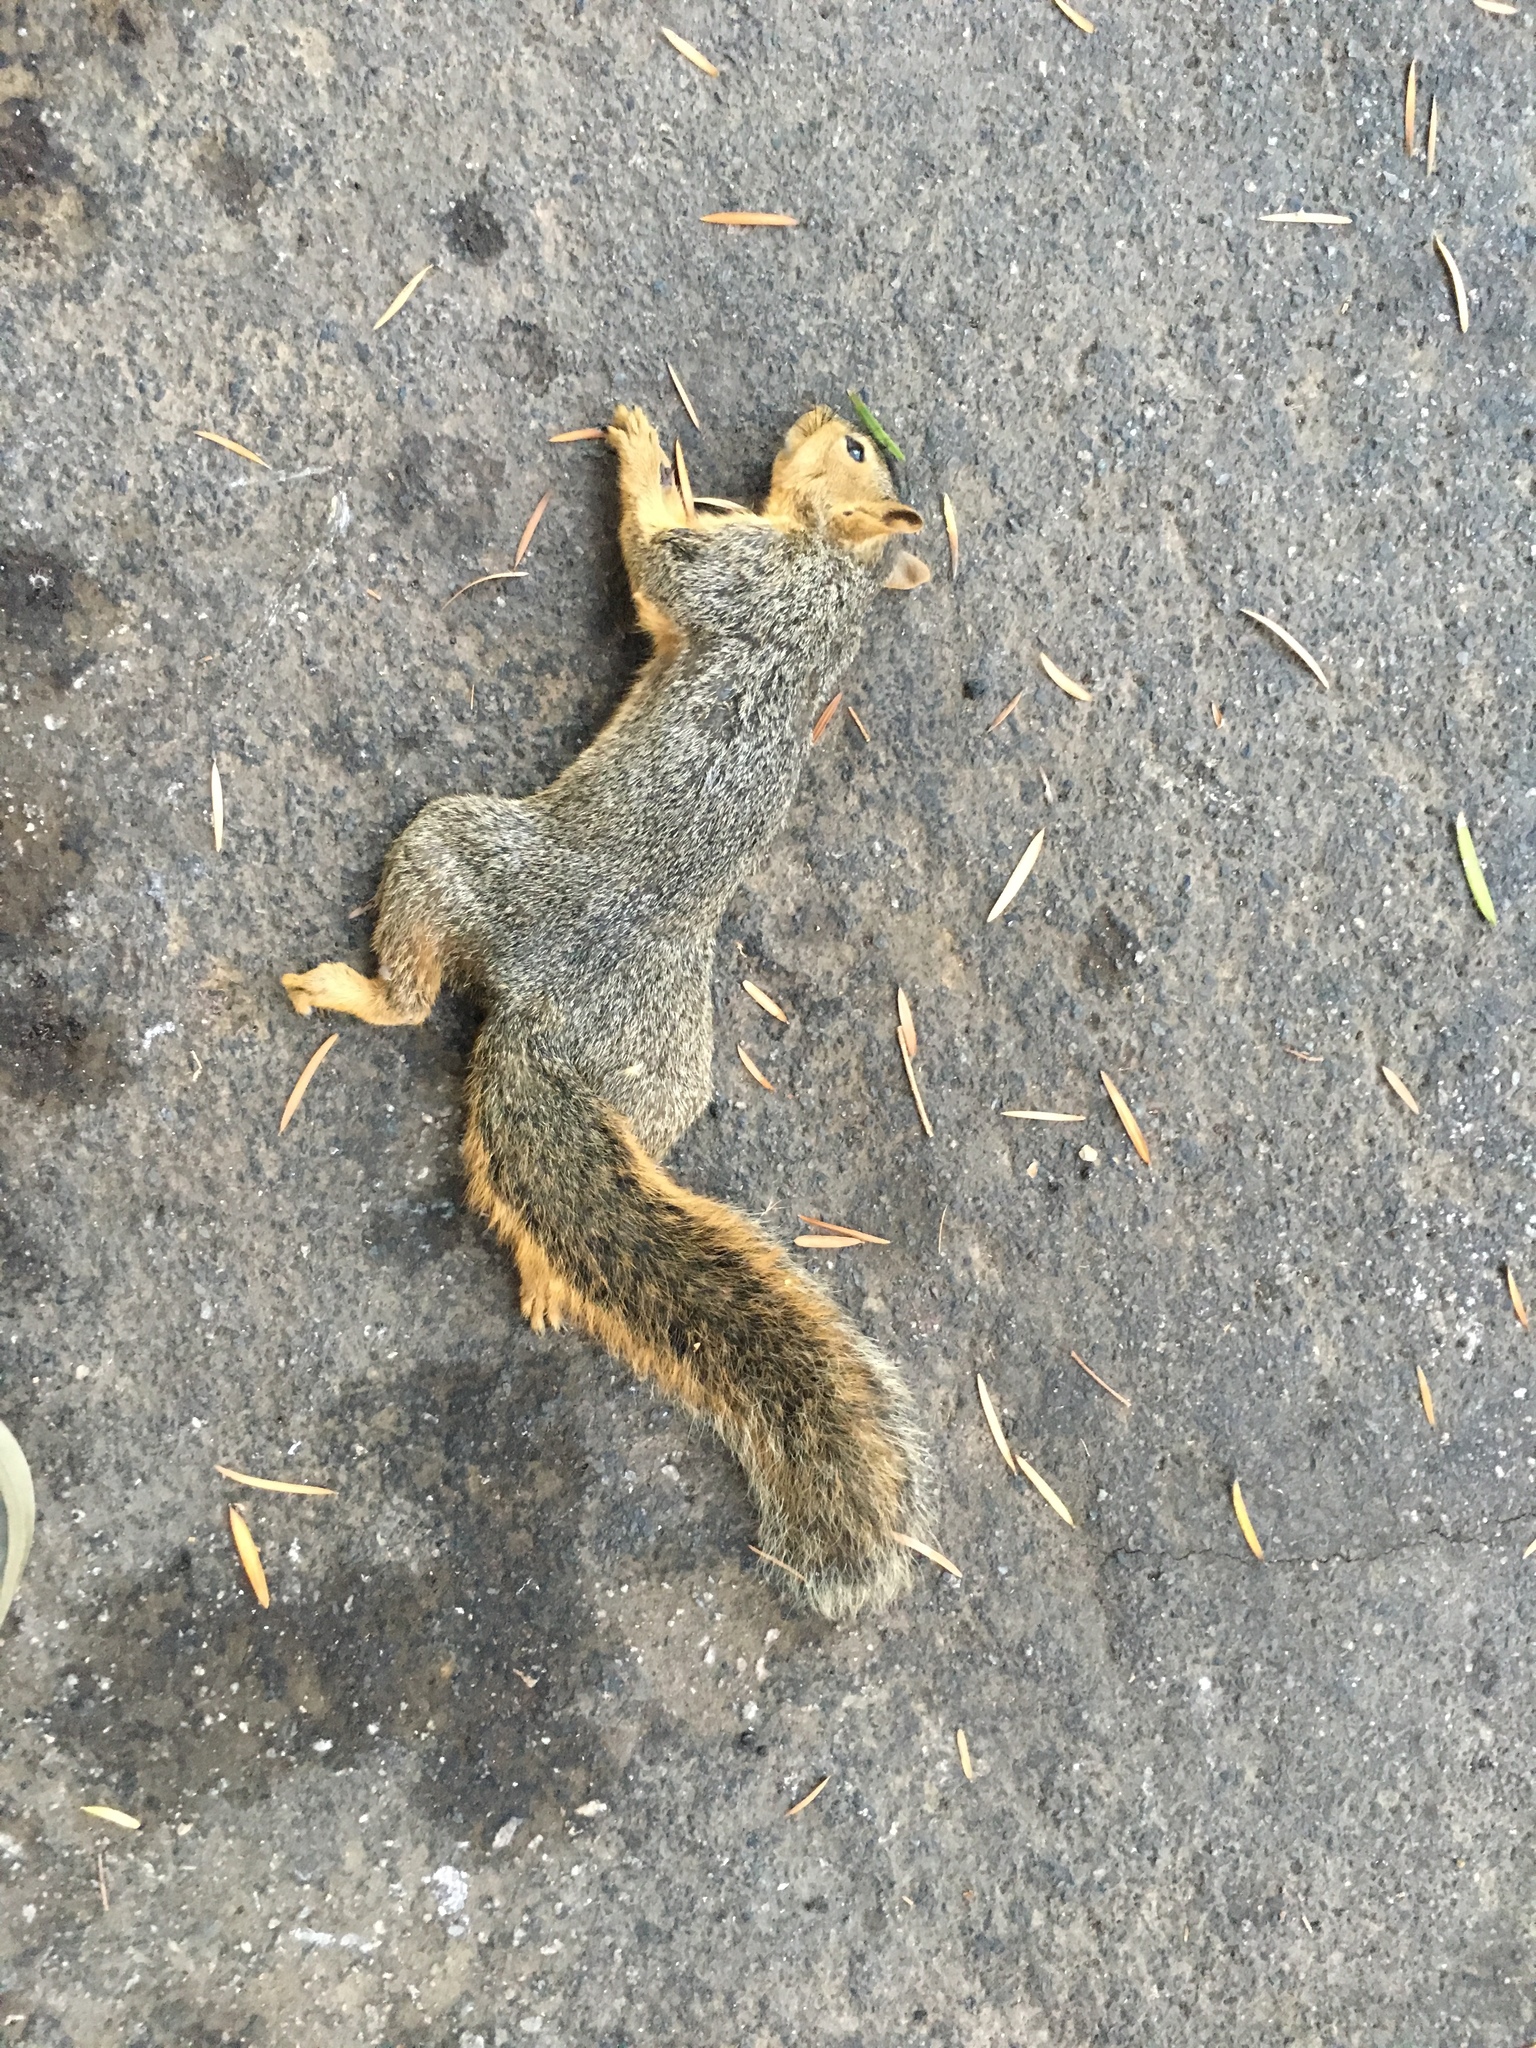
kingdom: Animalia
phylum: Chordata
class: Mammalia
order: Rodentia
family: Sciuridae
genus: Sciurus
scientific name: Sciurus niger
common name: Fox squirrel
